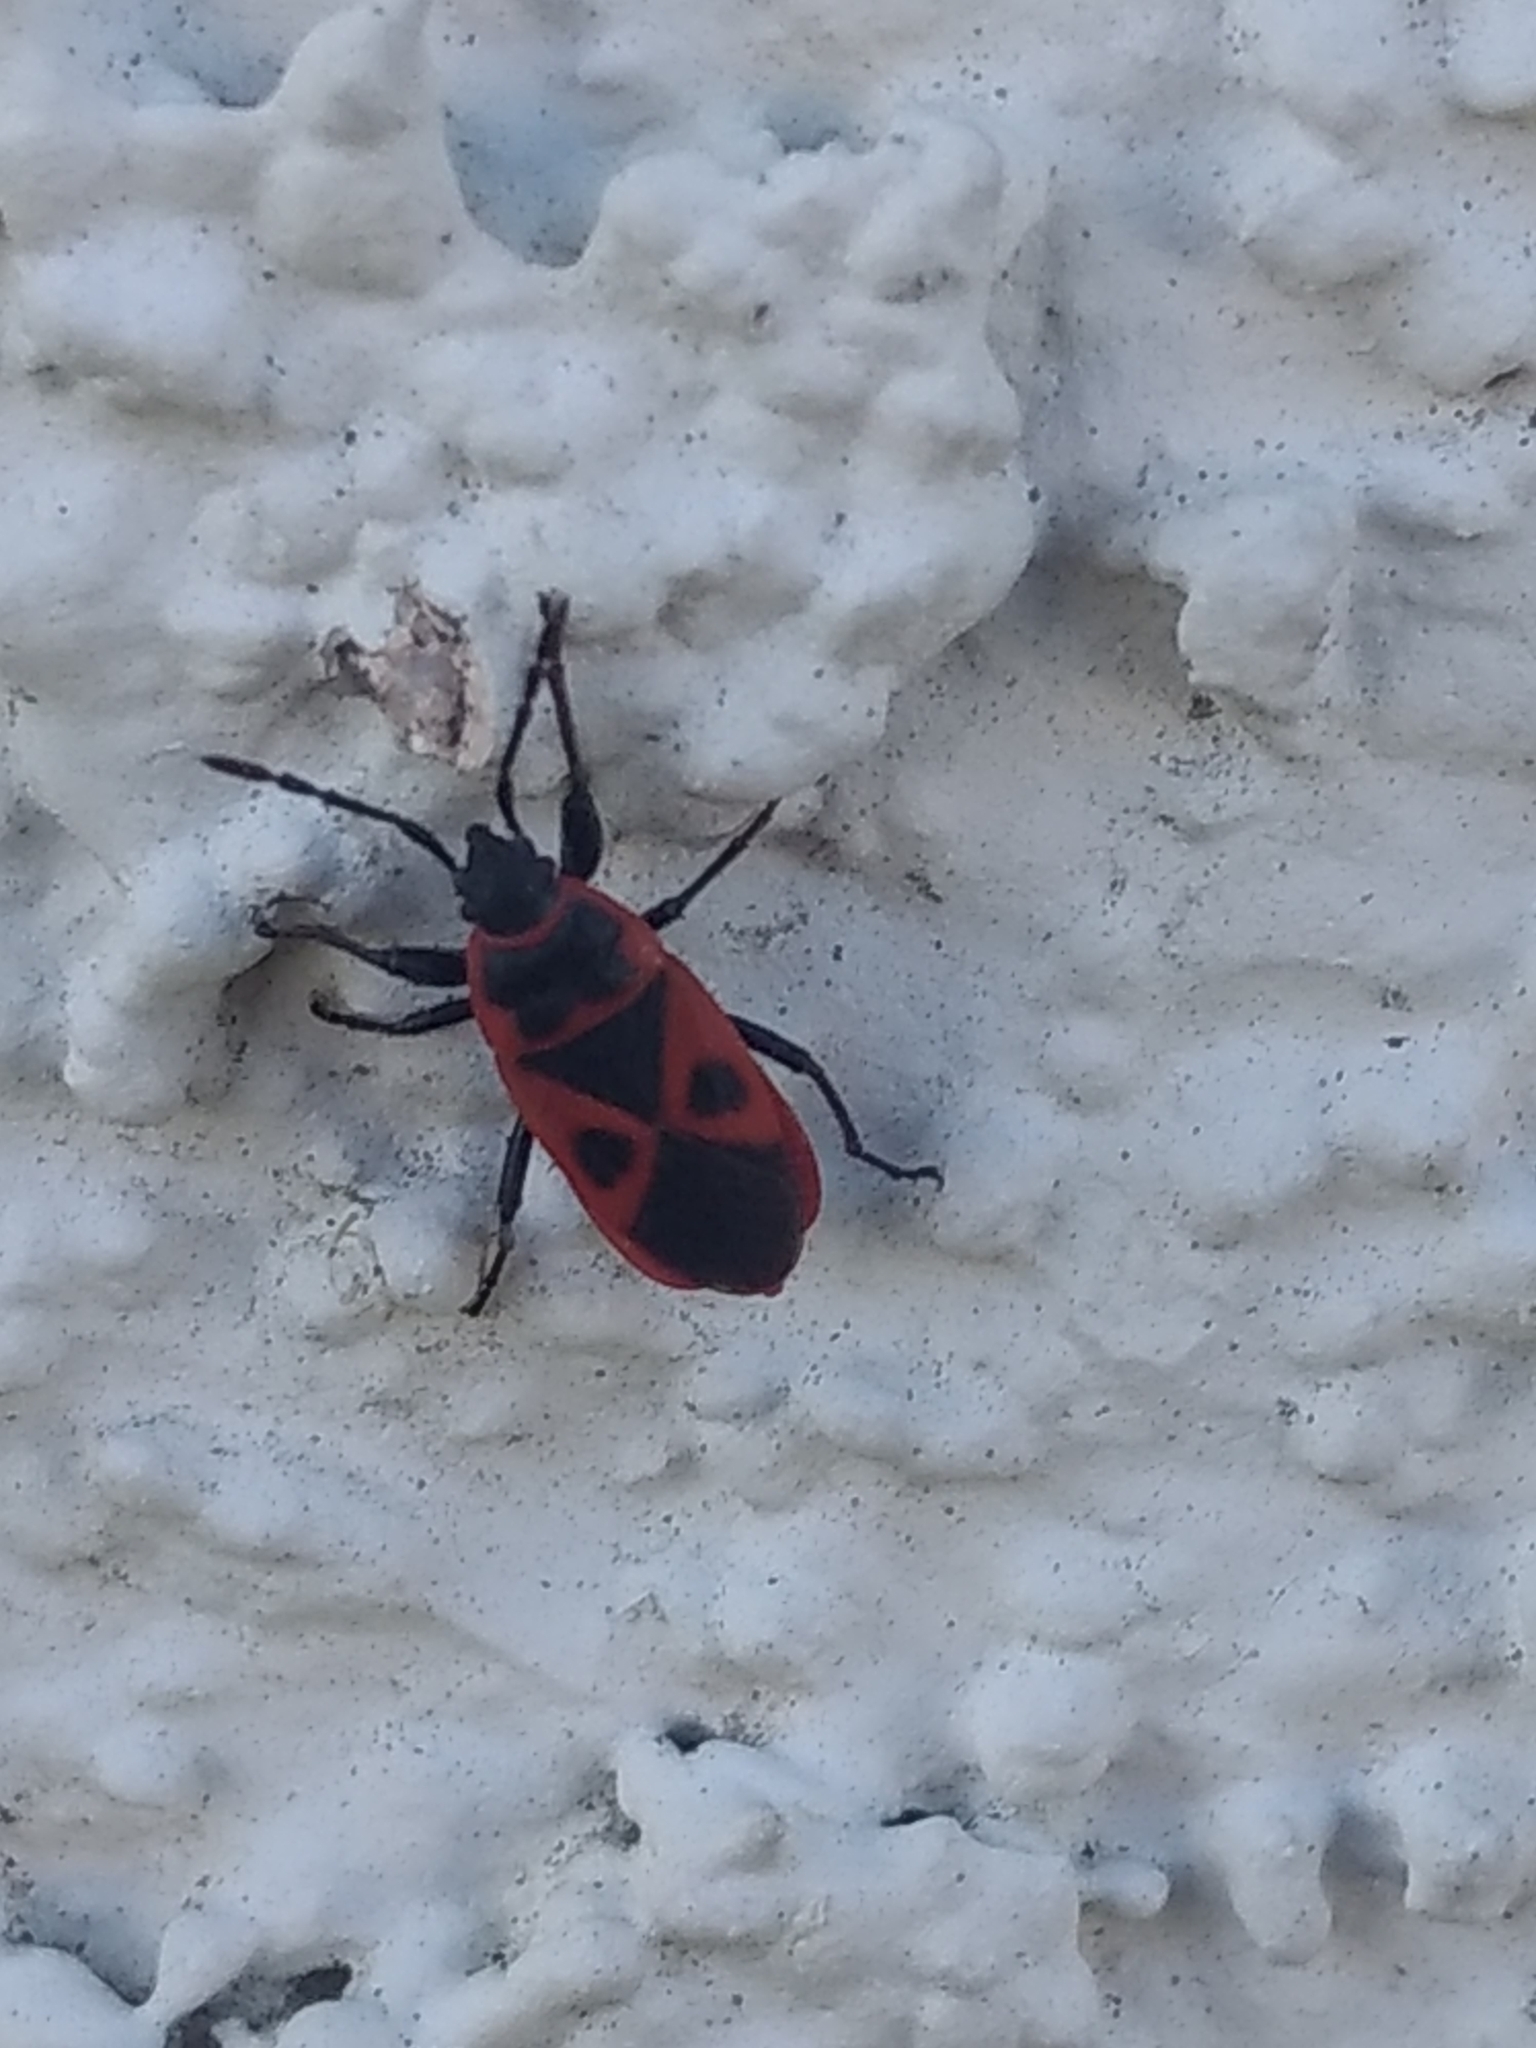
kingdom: Animalia
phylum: Arthropoda
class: Insecta
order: Hemiptera
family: Pyrrhocoridae
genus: Scantius
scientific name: Scantius aegyptius
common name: Red bug
